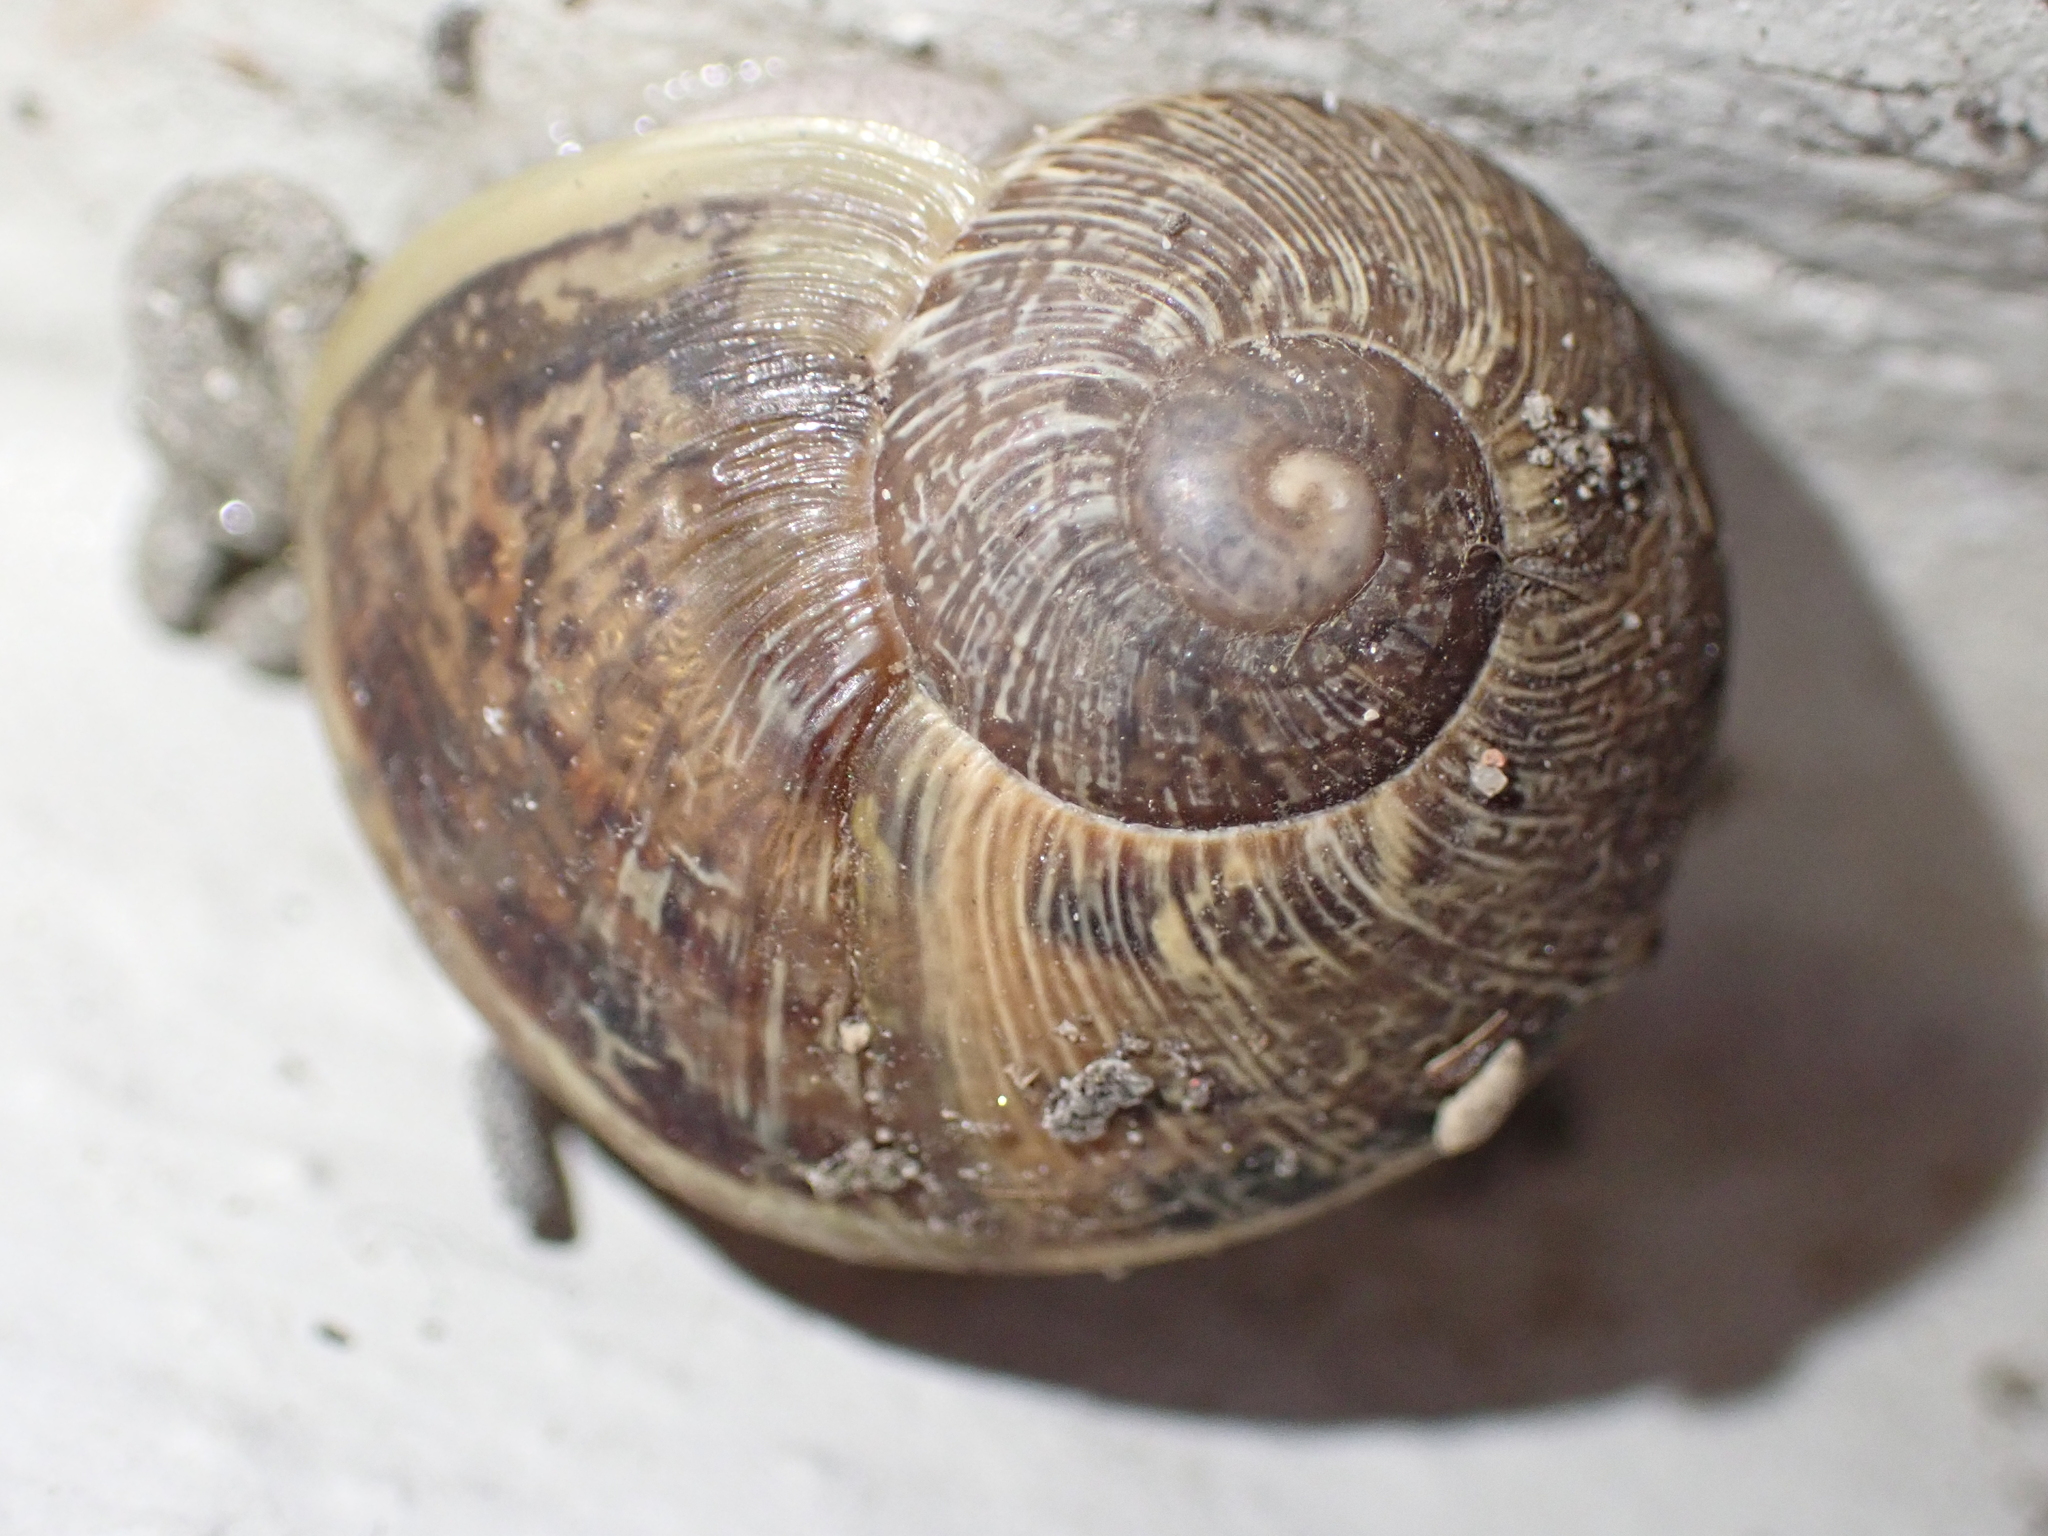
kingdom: Animalia
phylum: Mollusca
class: Gastropoda
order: Stylommatophora
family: Helicidae
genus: Cornu
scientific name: Cornu aspersum
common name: Brown garden snail
